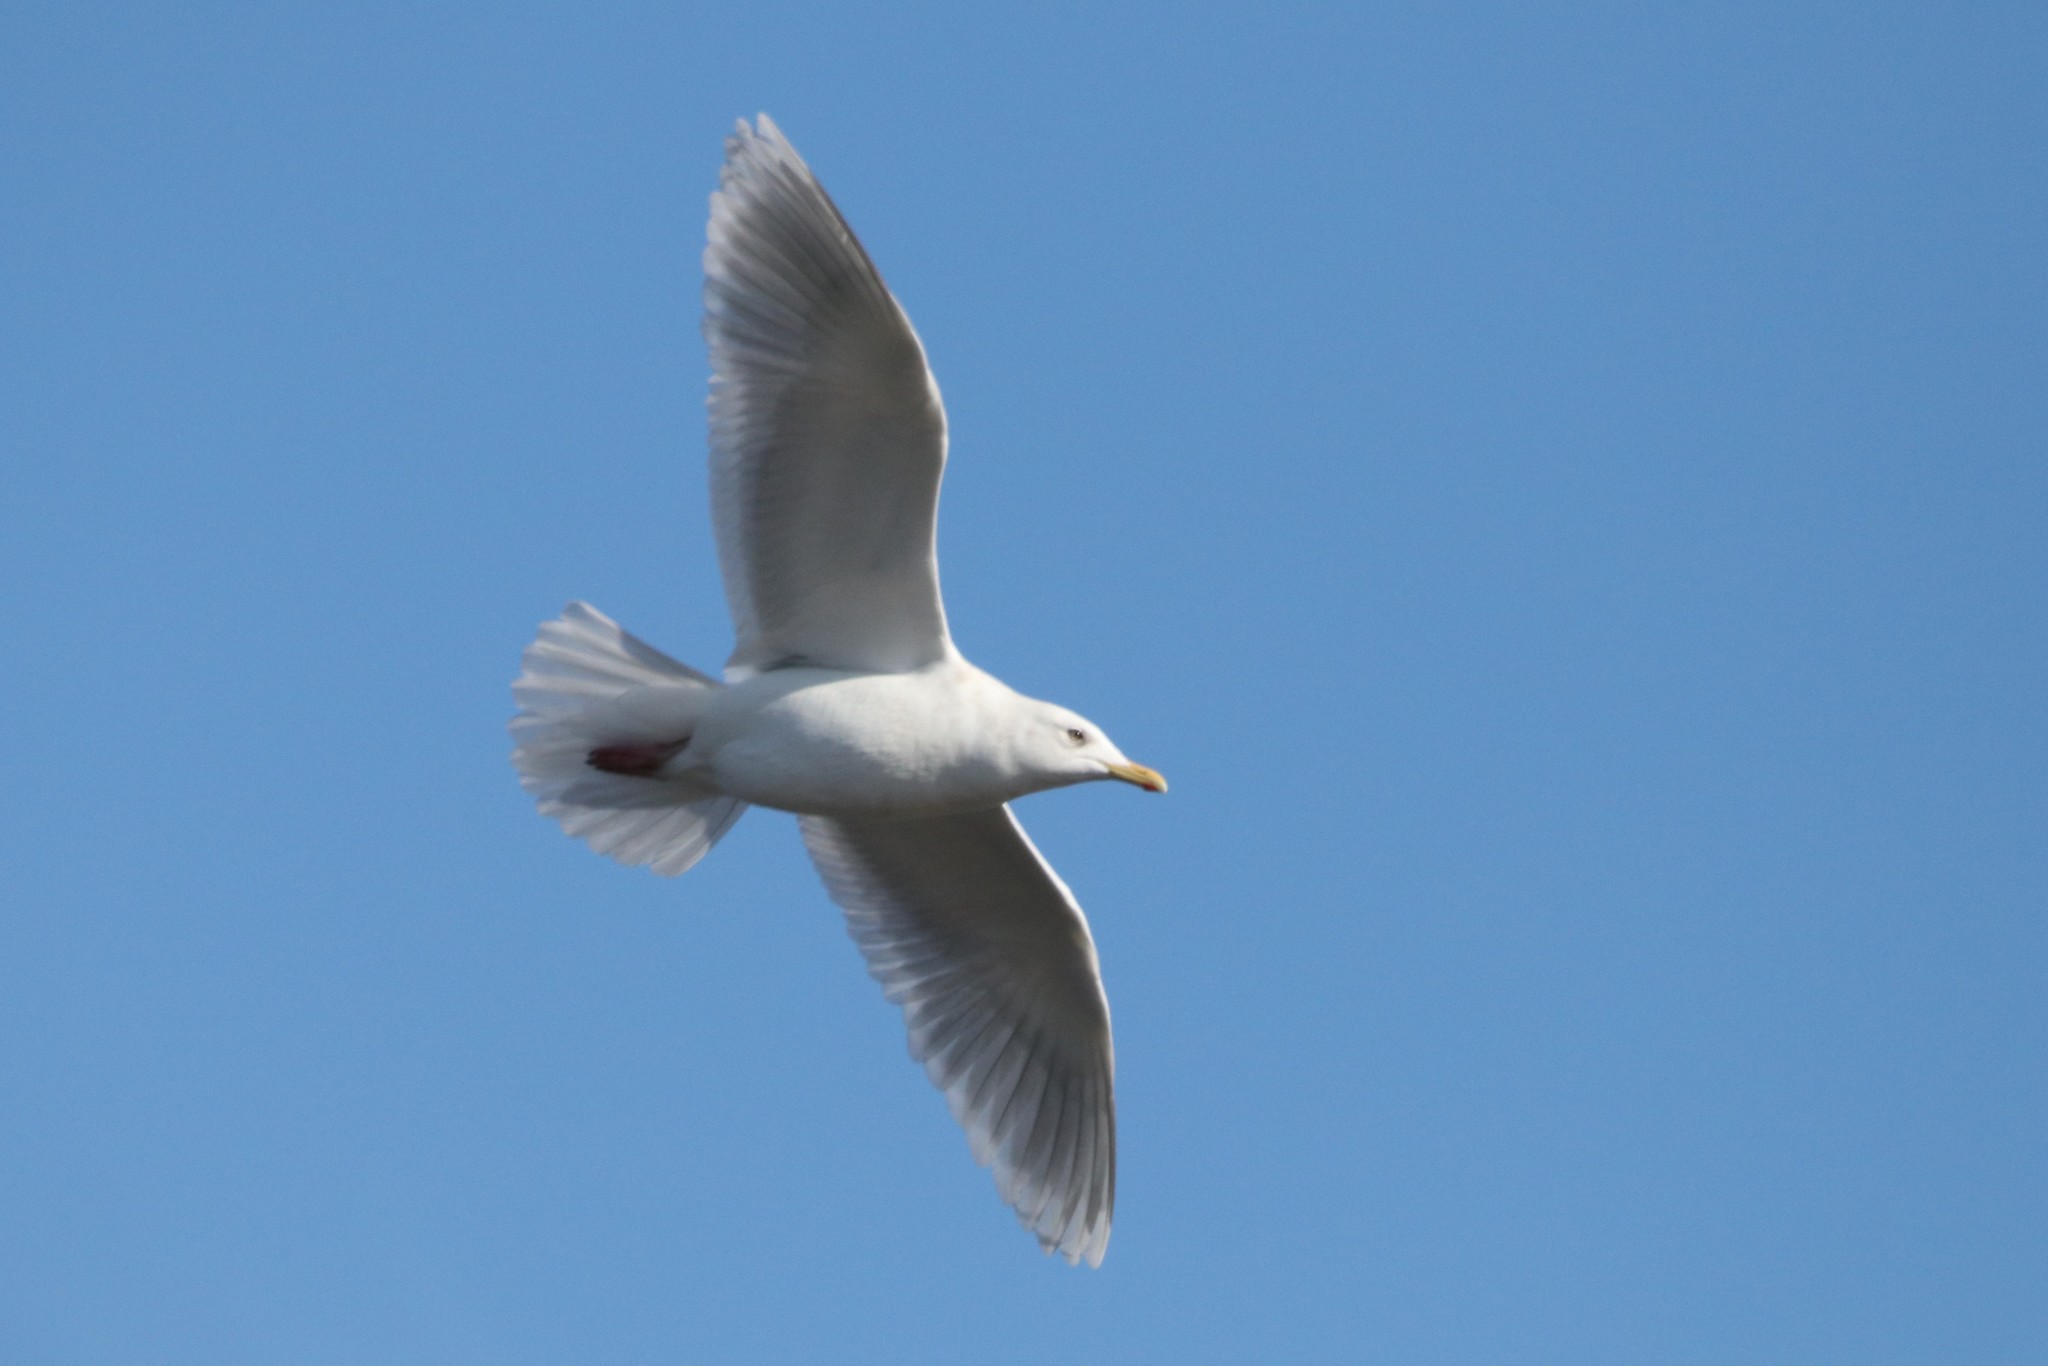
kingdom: Animalia
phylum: Chordata
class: Aves
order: Charadriiformes
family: Laridae
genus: Larus
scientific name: Larus glaucoides
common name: Iceland gull
